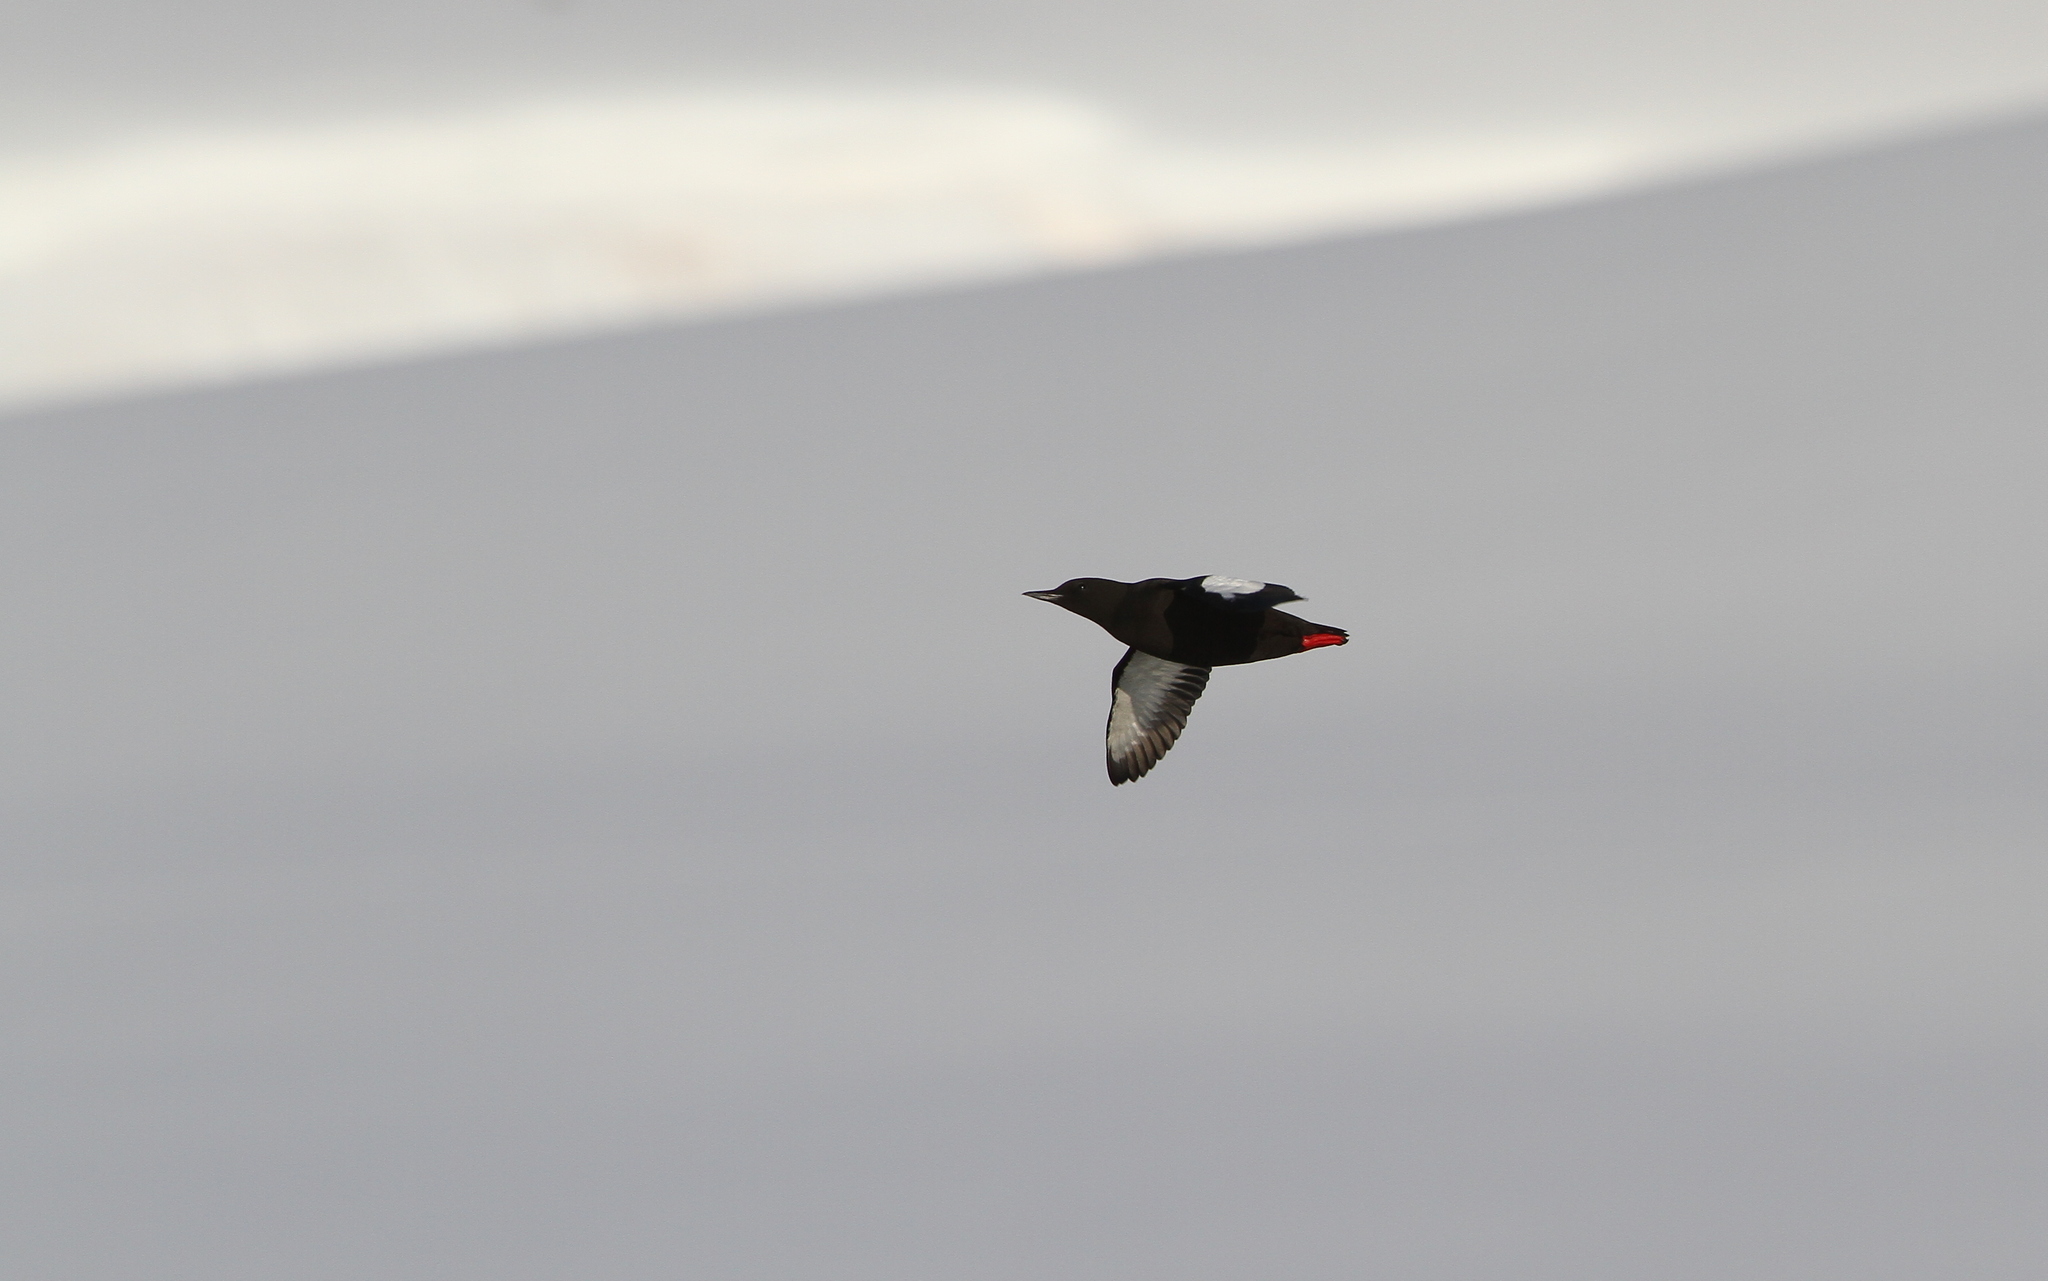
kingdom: Animalia
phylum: Chordata
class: Aves
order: Charadriiformes
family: Alcidae
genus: Cepphus
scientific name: Cepphus grylle
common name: Black guillemot
